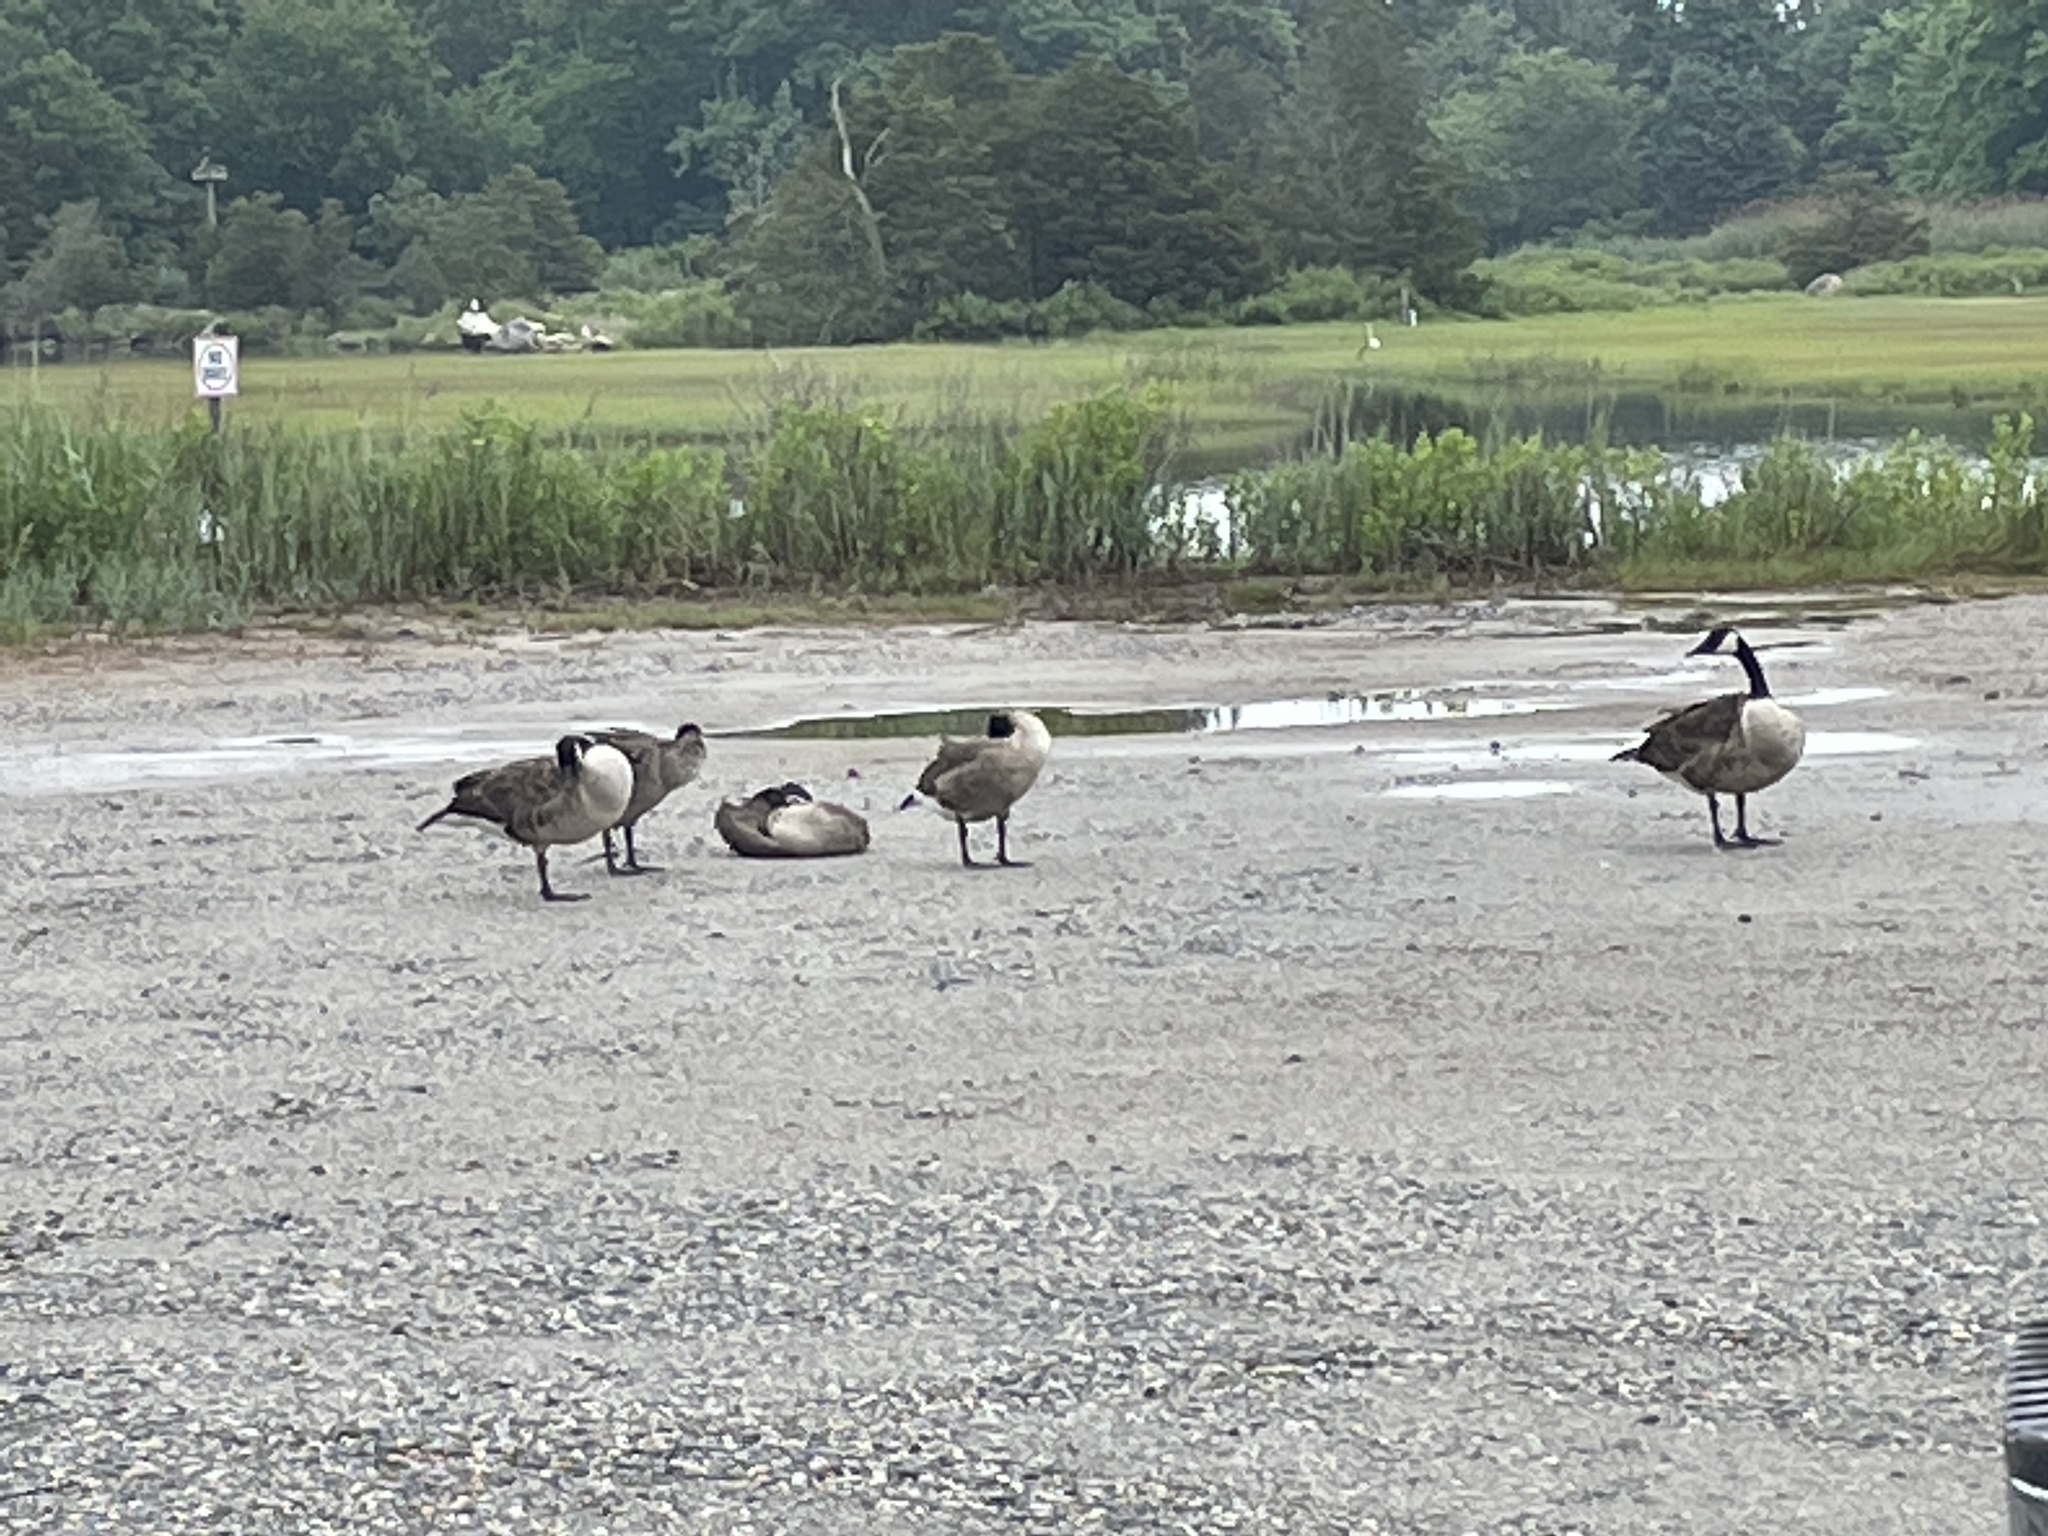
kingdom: Animalia
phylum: Chordata
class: Aves
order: Anseriformes
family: Anatidae
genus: Branta
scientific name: Branta canadensis
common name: Canada goose
